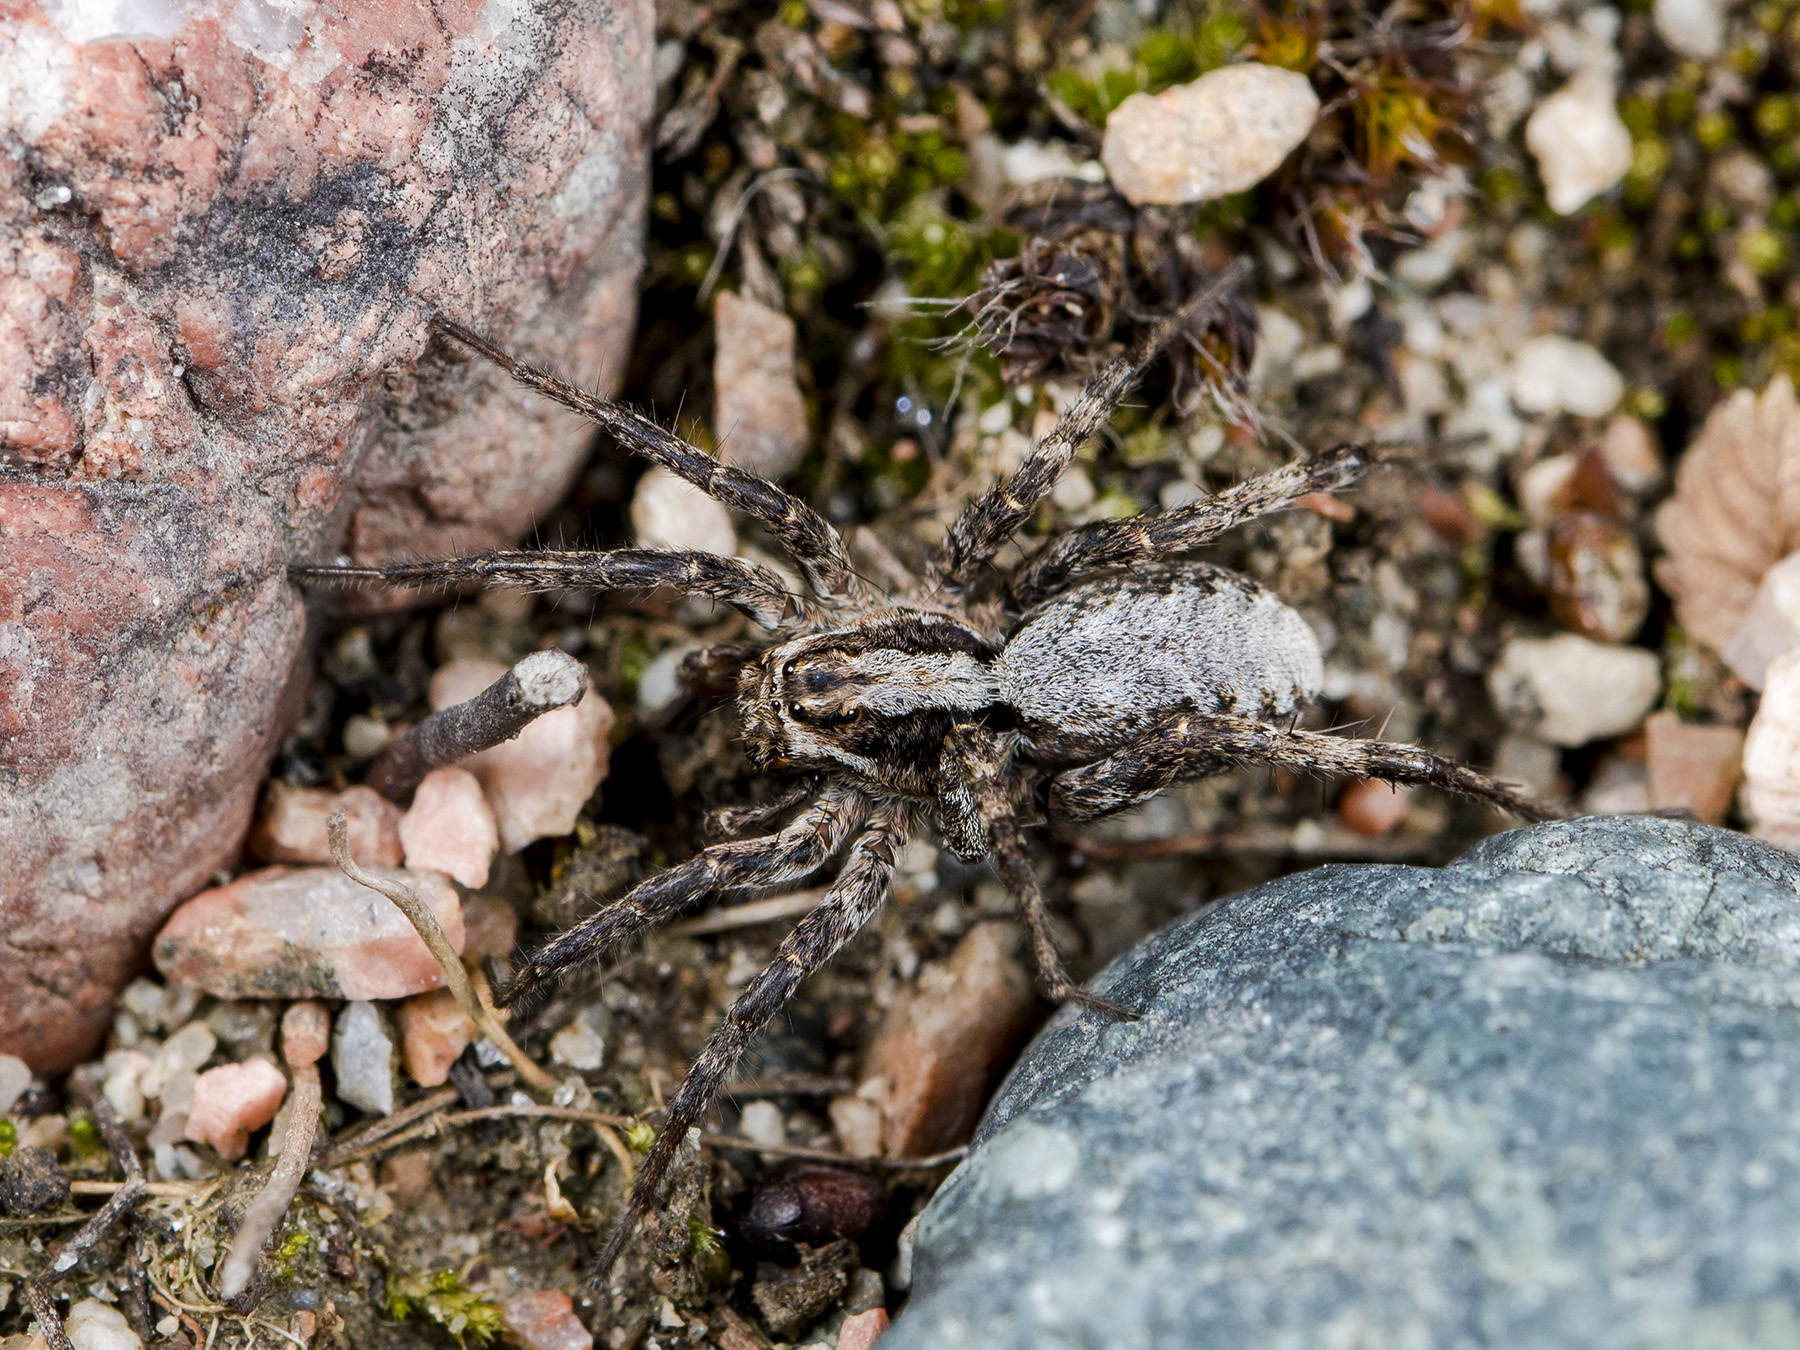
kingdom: Animalia
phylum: Arthropoda
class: Arachnida
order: Araneae
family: Lycosidae
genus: Alopecosa
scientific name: Alopecosa cursor
